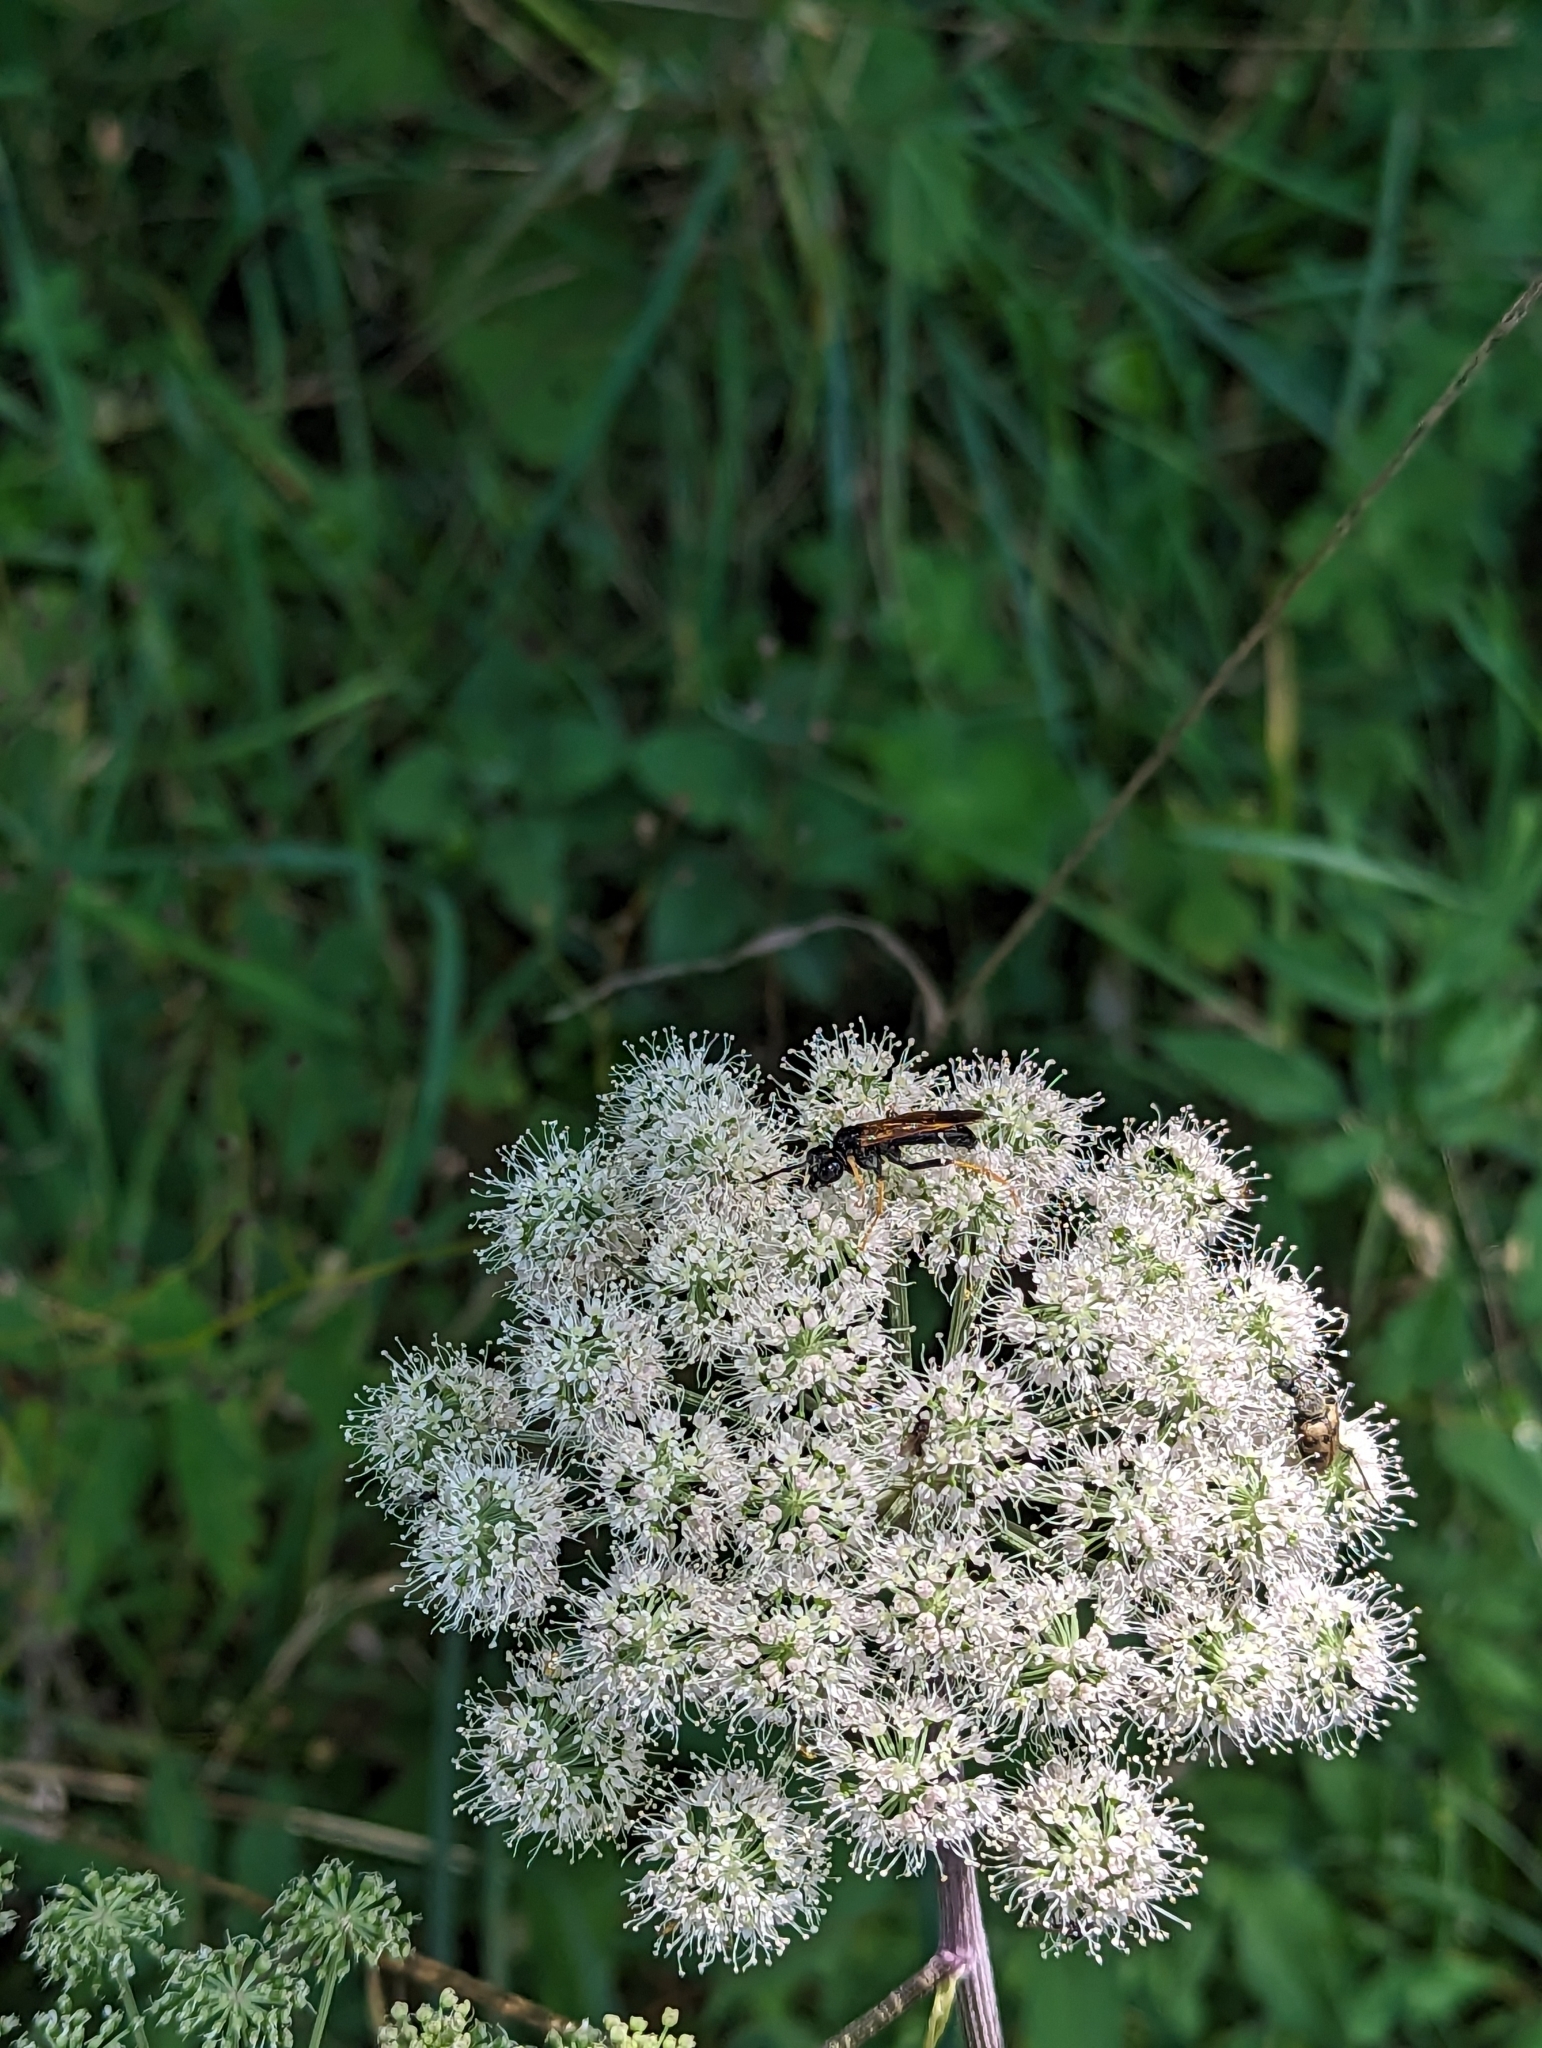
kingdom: Animalia
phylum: Arthropoda
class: Insecta
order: Hymenoptera
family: Tenthredinidae
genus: Tenthredo
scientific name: Tenthredo crassa
